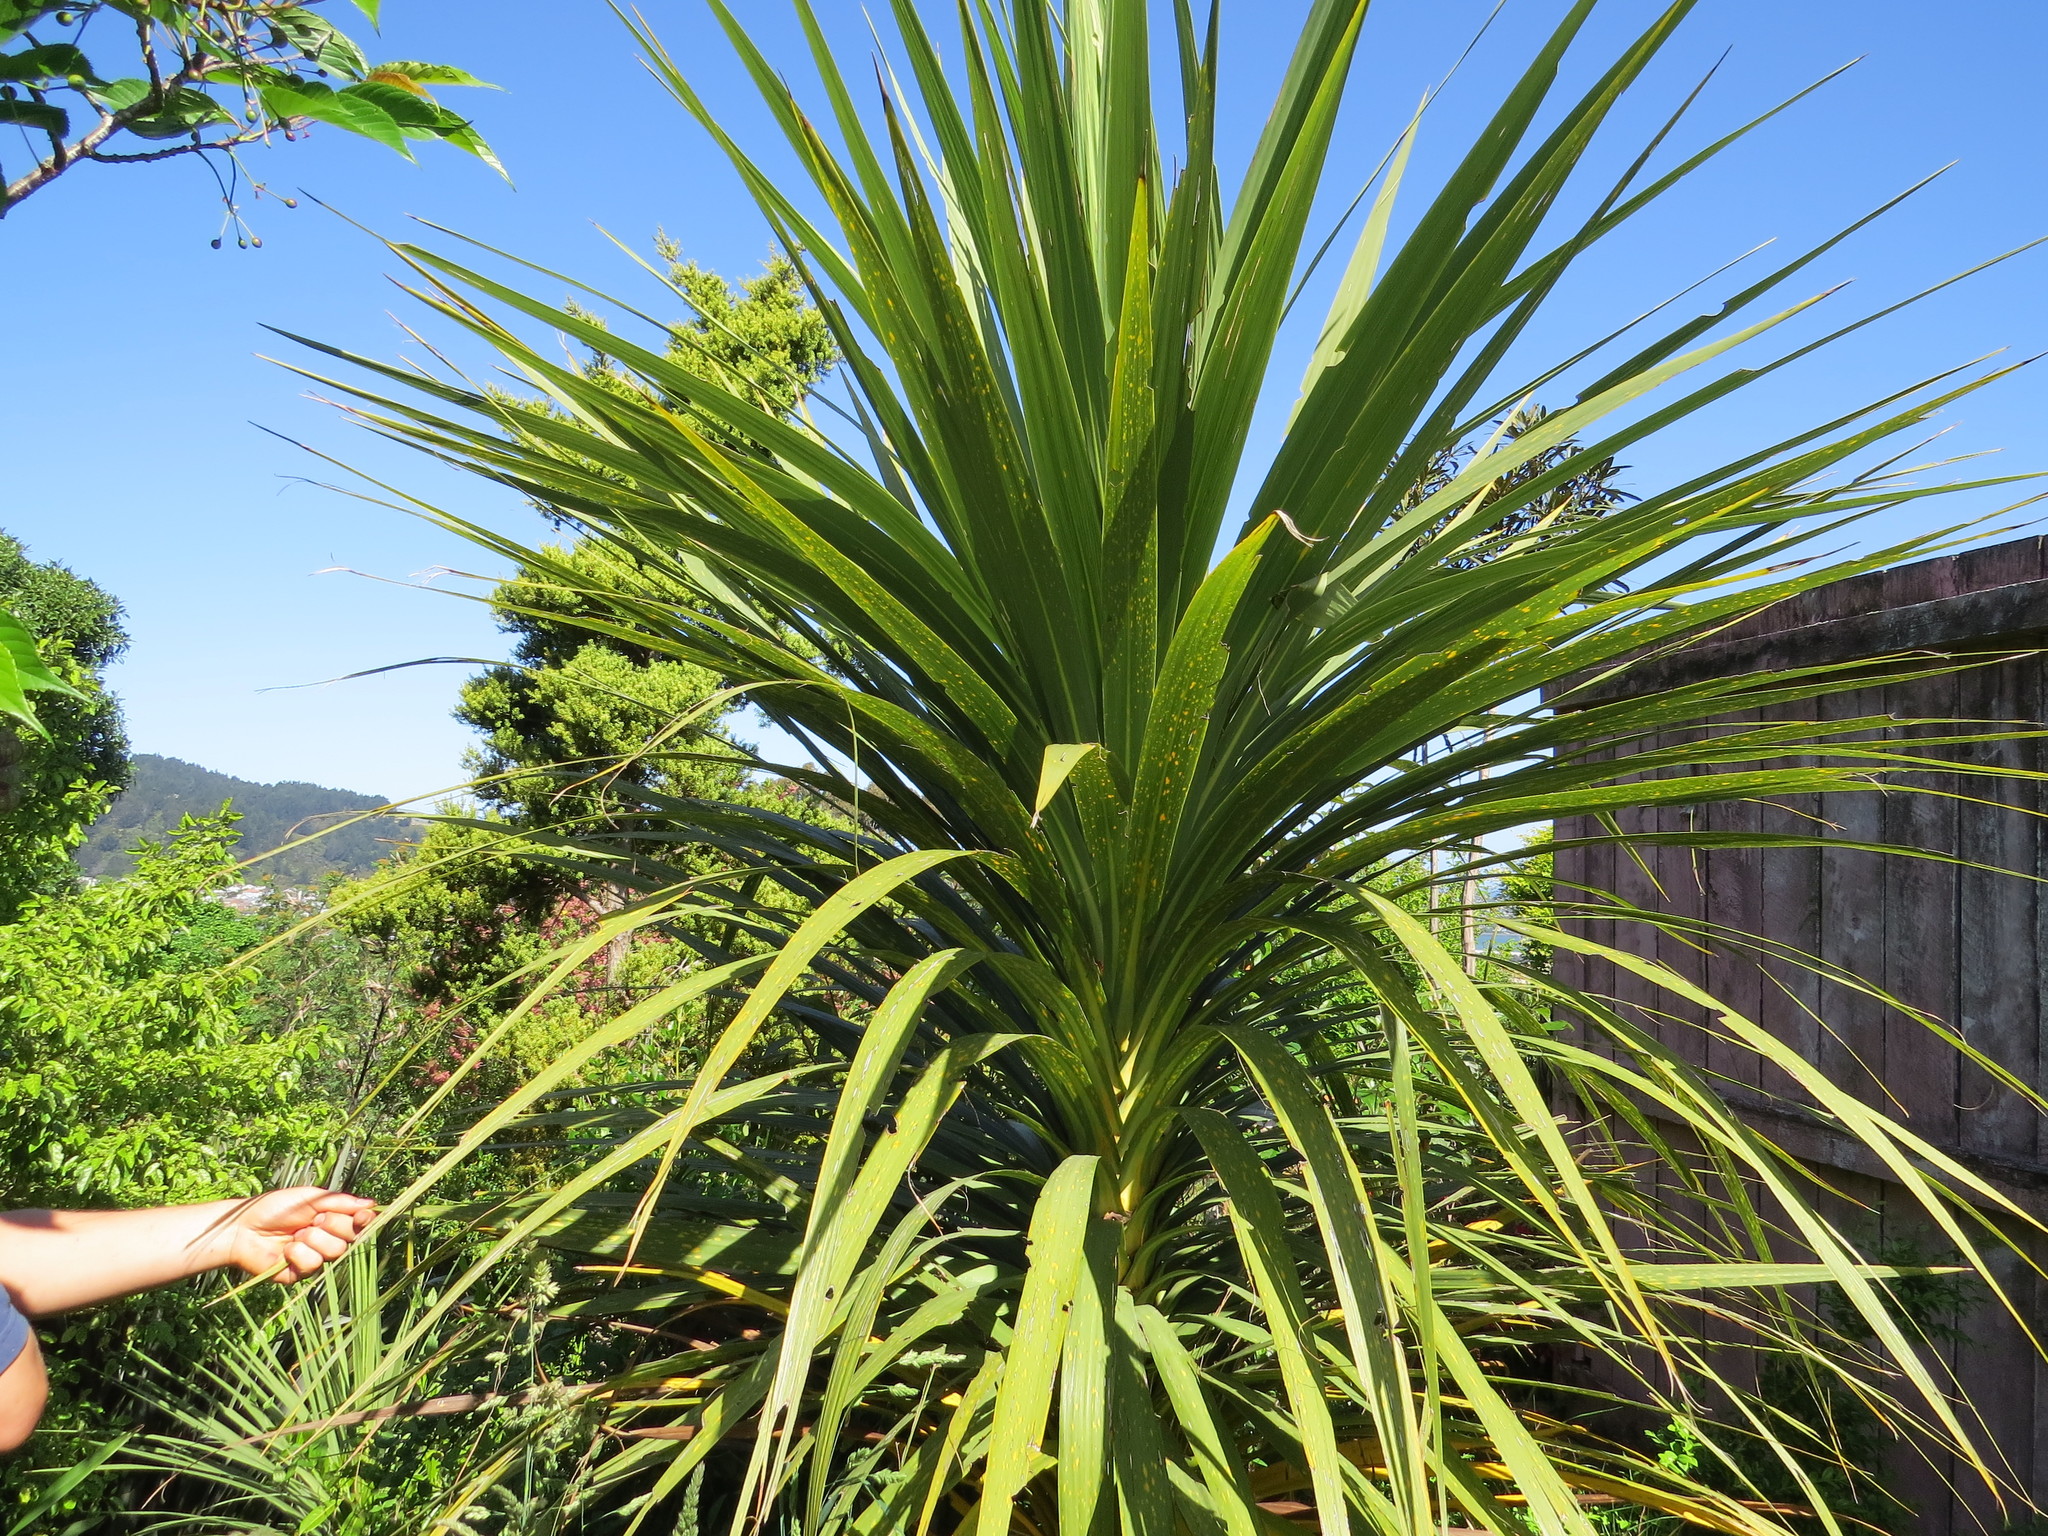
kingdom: Plantae
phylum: Tracheophyta
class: Liliopsida
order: Asparagales
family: Asparagaceae
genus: Cordyline
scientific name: Cordyline australis
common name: Cabbage-palm
